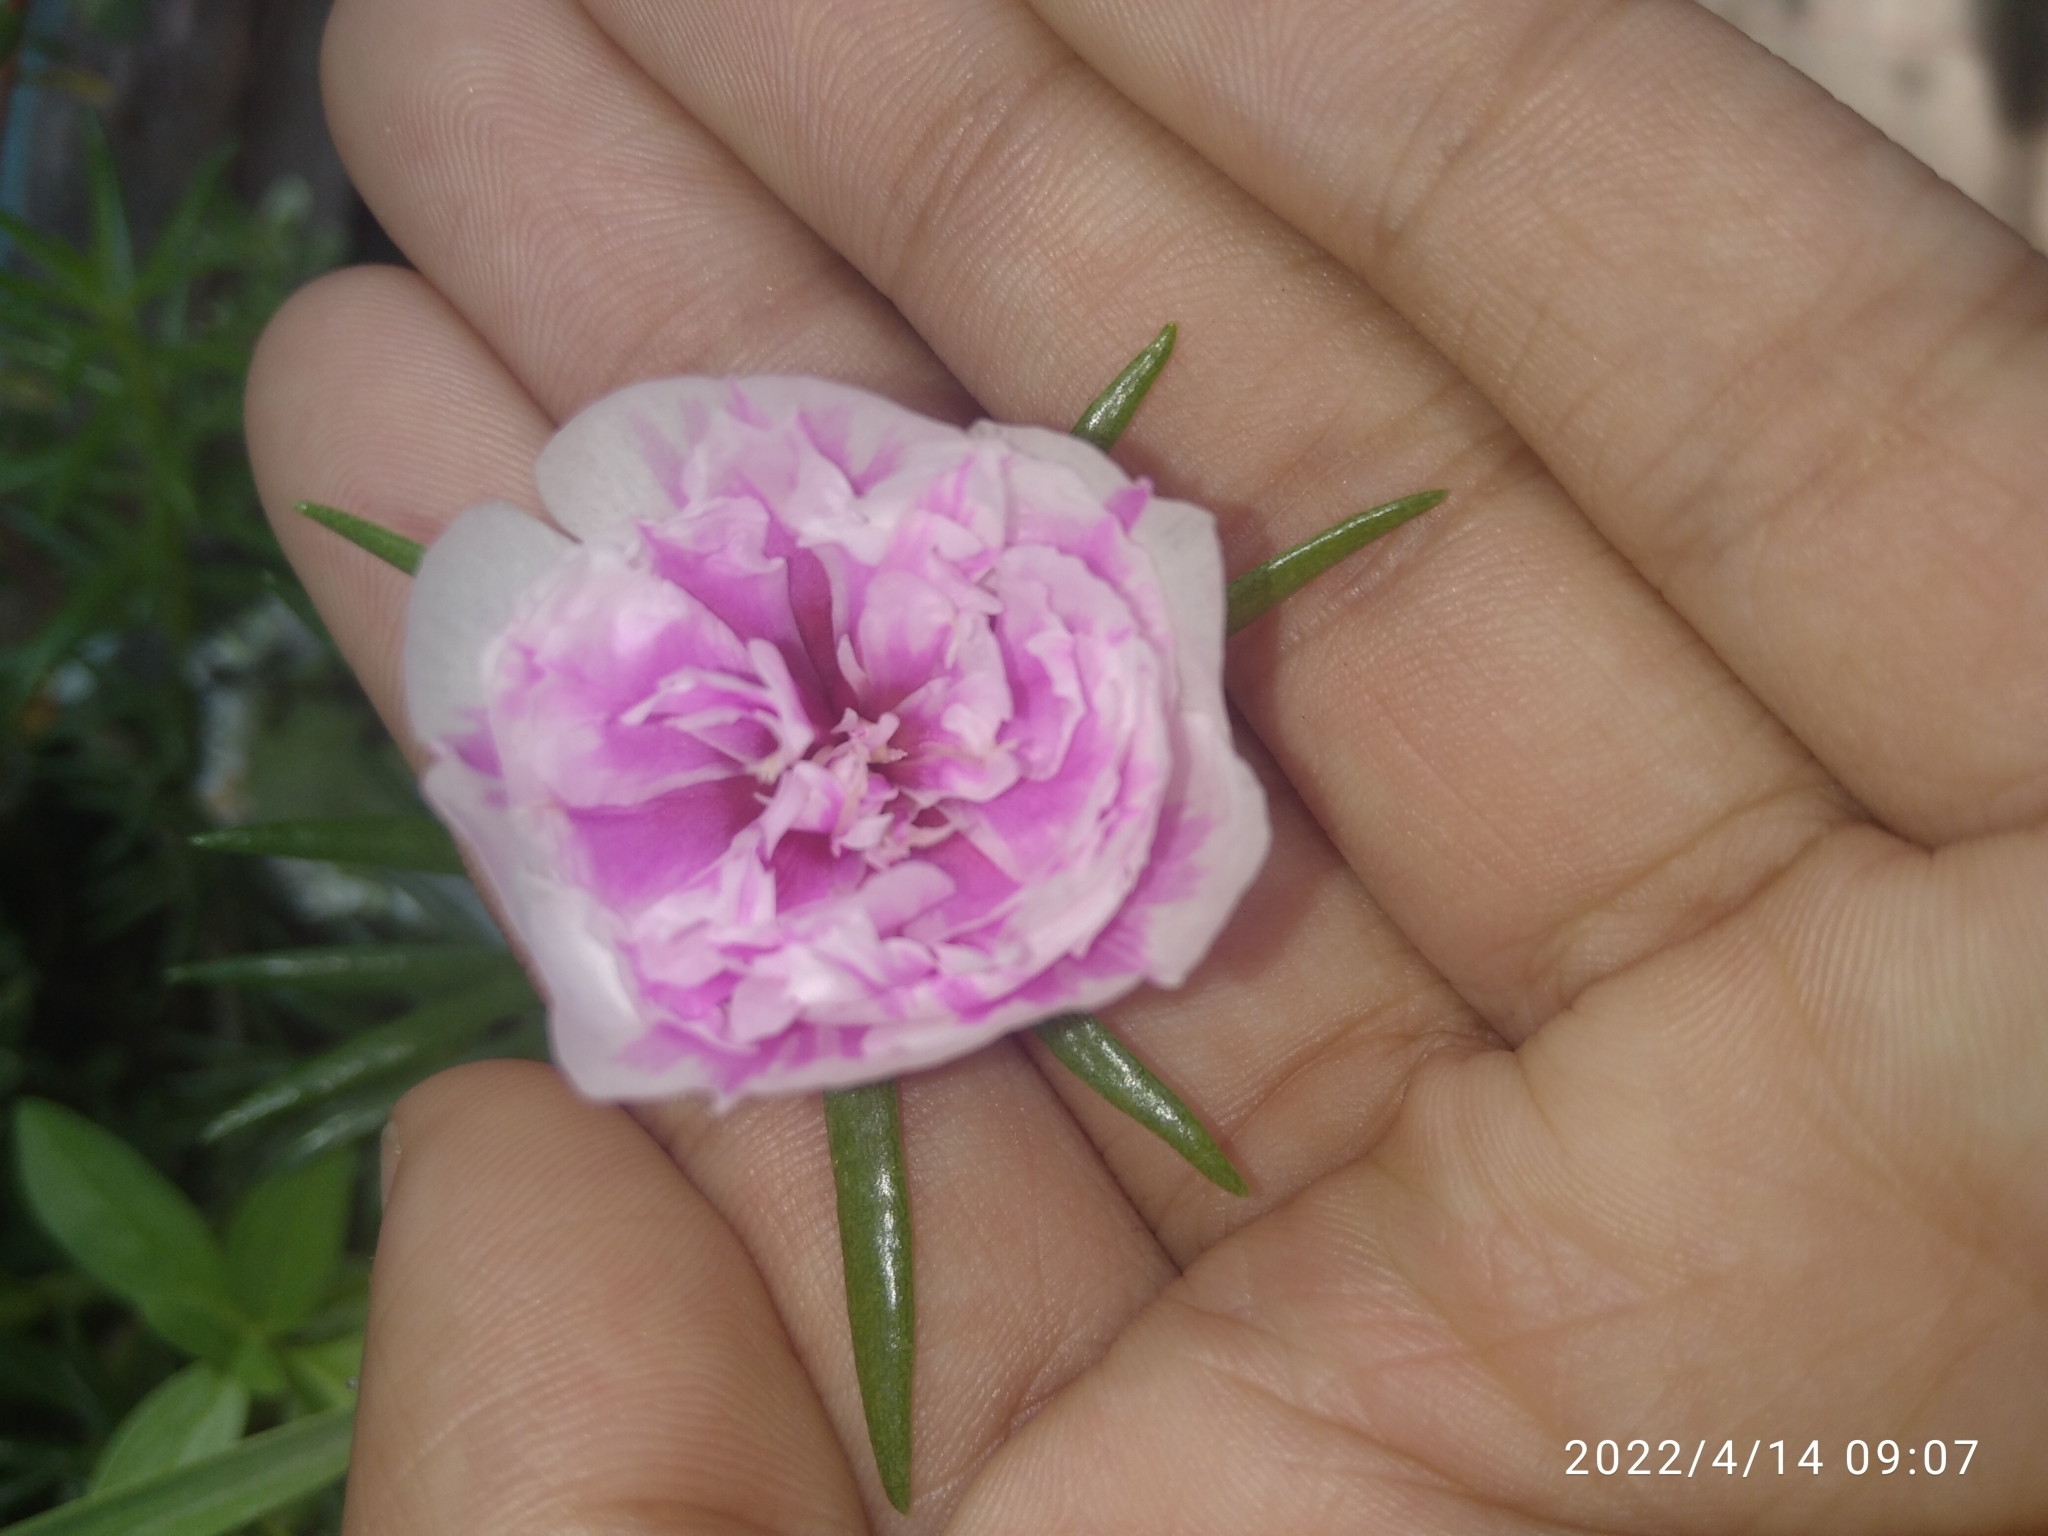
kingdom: Plantae
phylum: Tracheophyta
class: Magnoliopsida
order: Caryophyllales
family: Portulacaceae
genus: Portulaca
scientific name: Portulaca grandiflora
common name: Moss-rose
